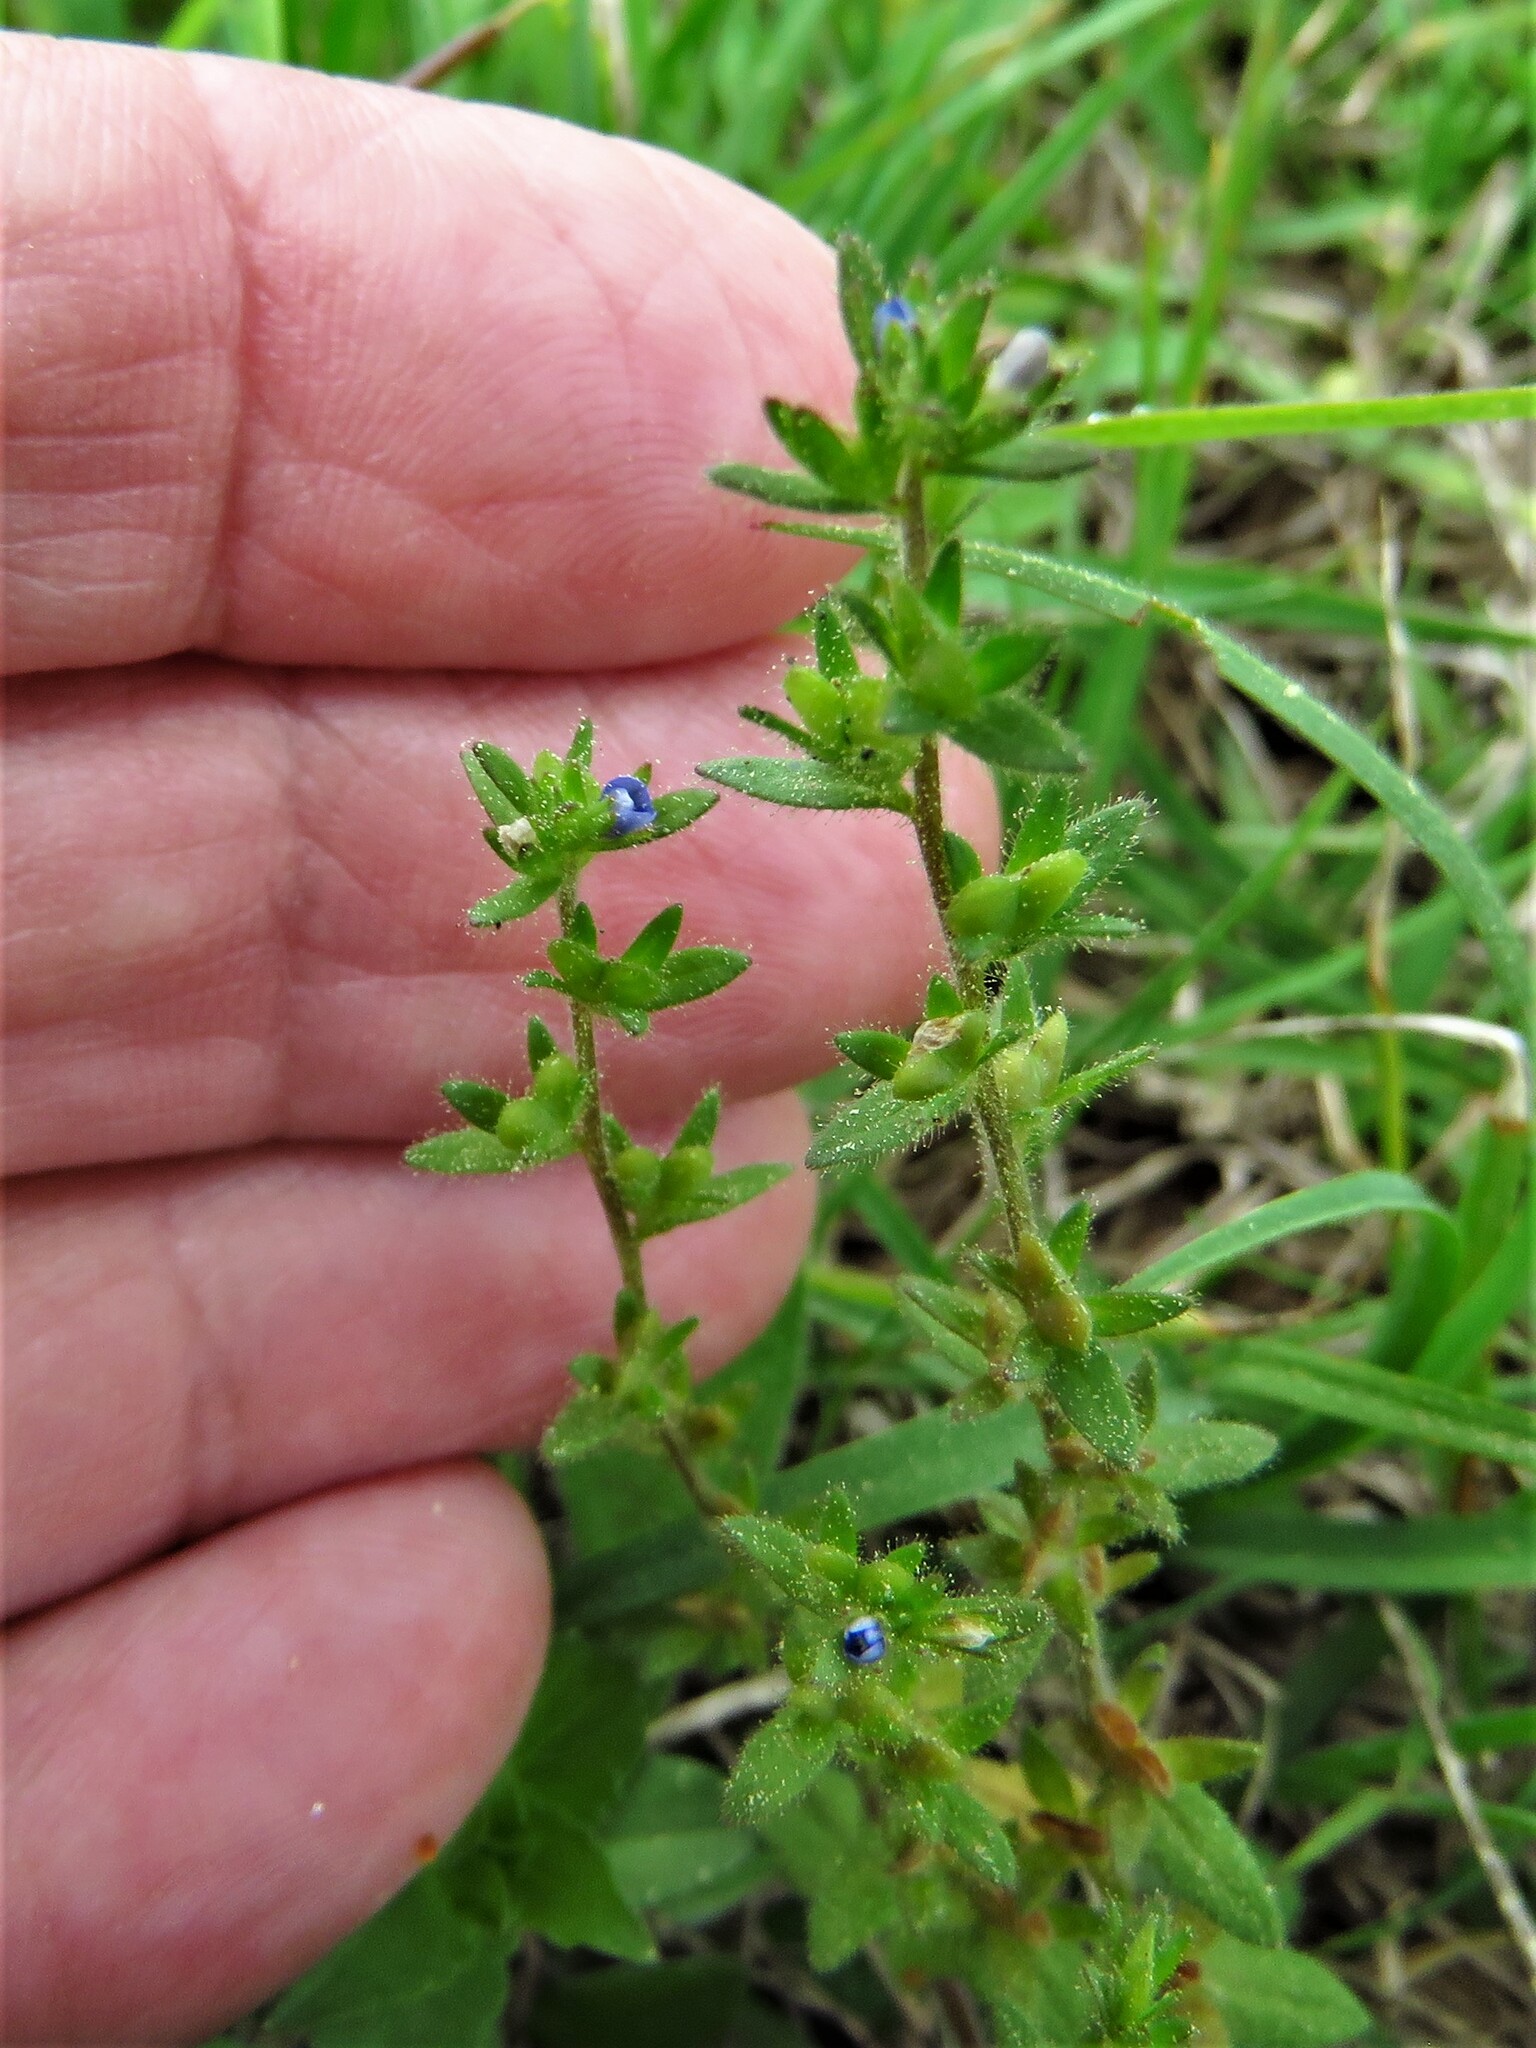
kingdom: Plantae
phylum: Tracheophyta
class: Magnoliopsida
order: Lamiales
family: Plantaginaceae
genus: Veronica
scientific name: Veronica arvensis
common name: Corn speedwell
